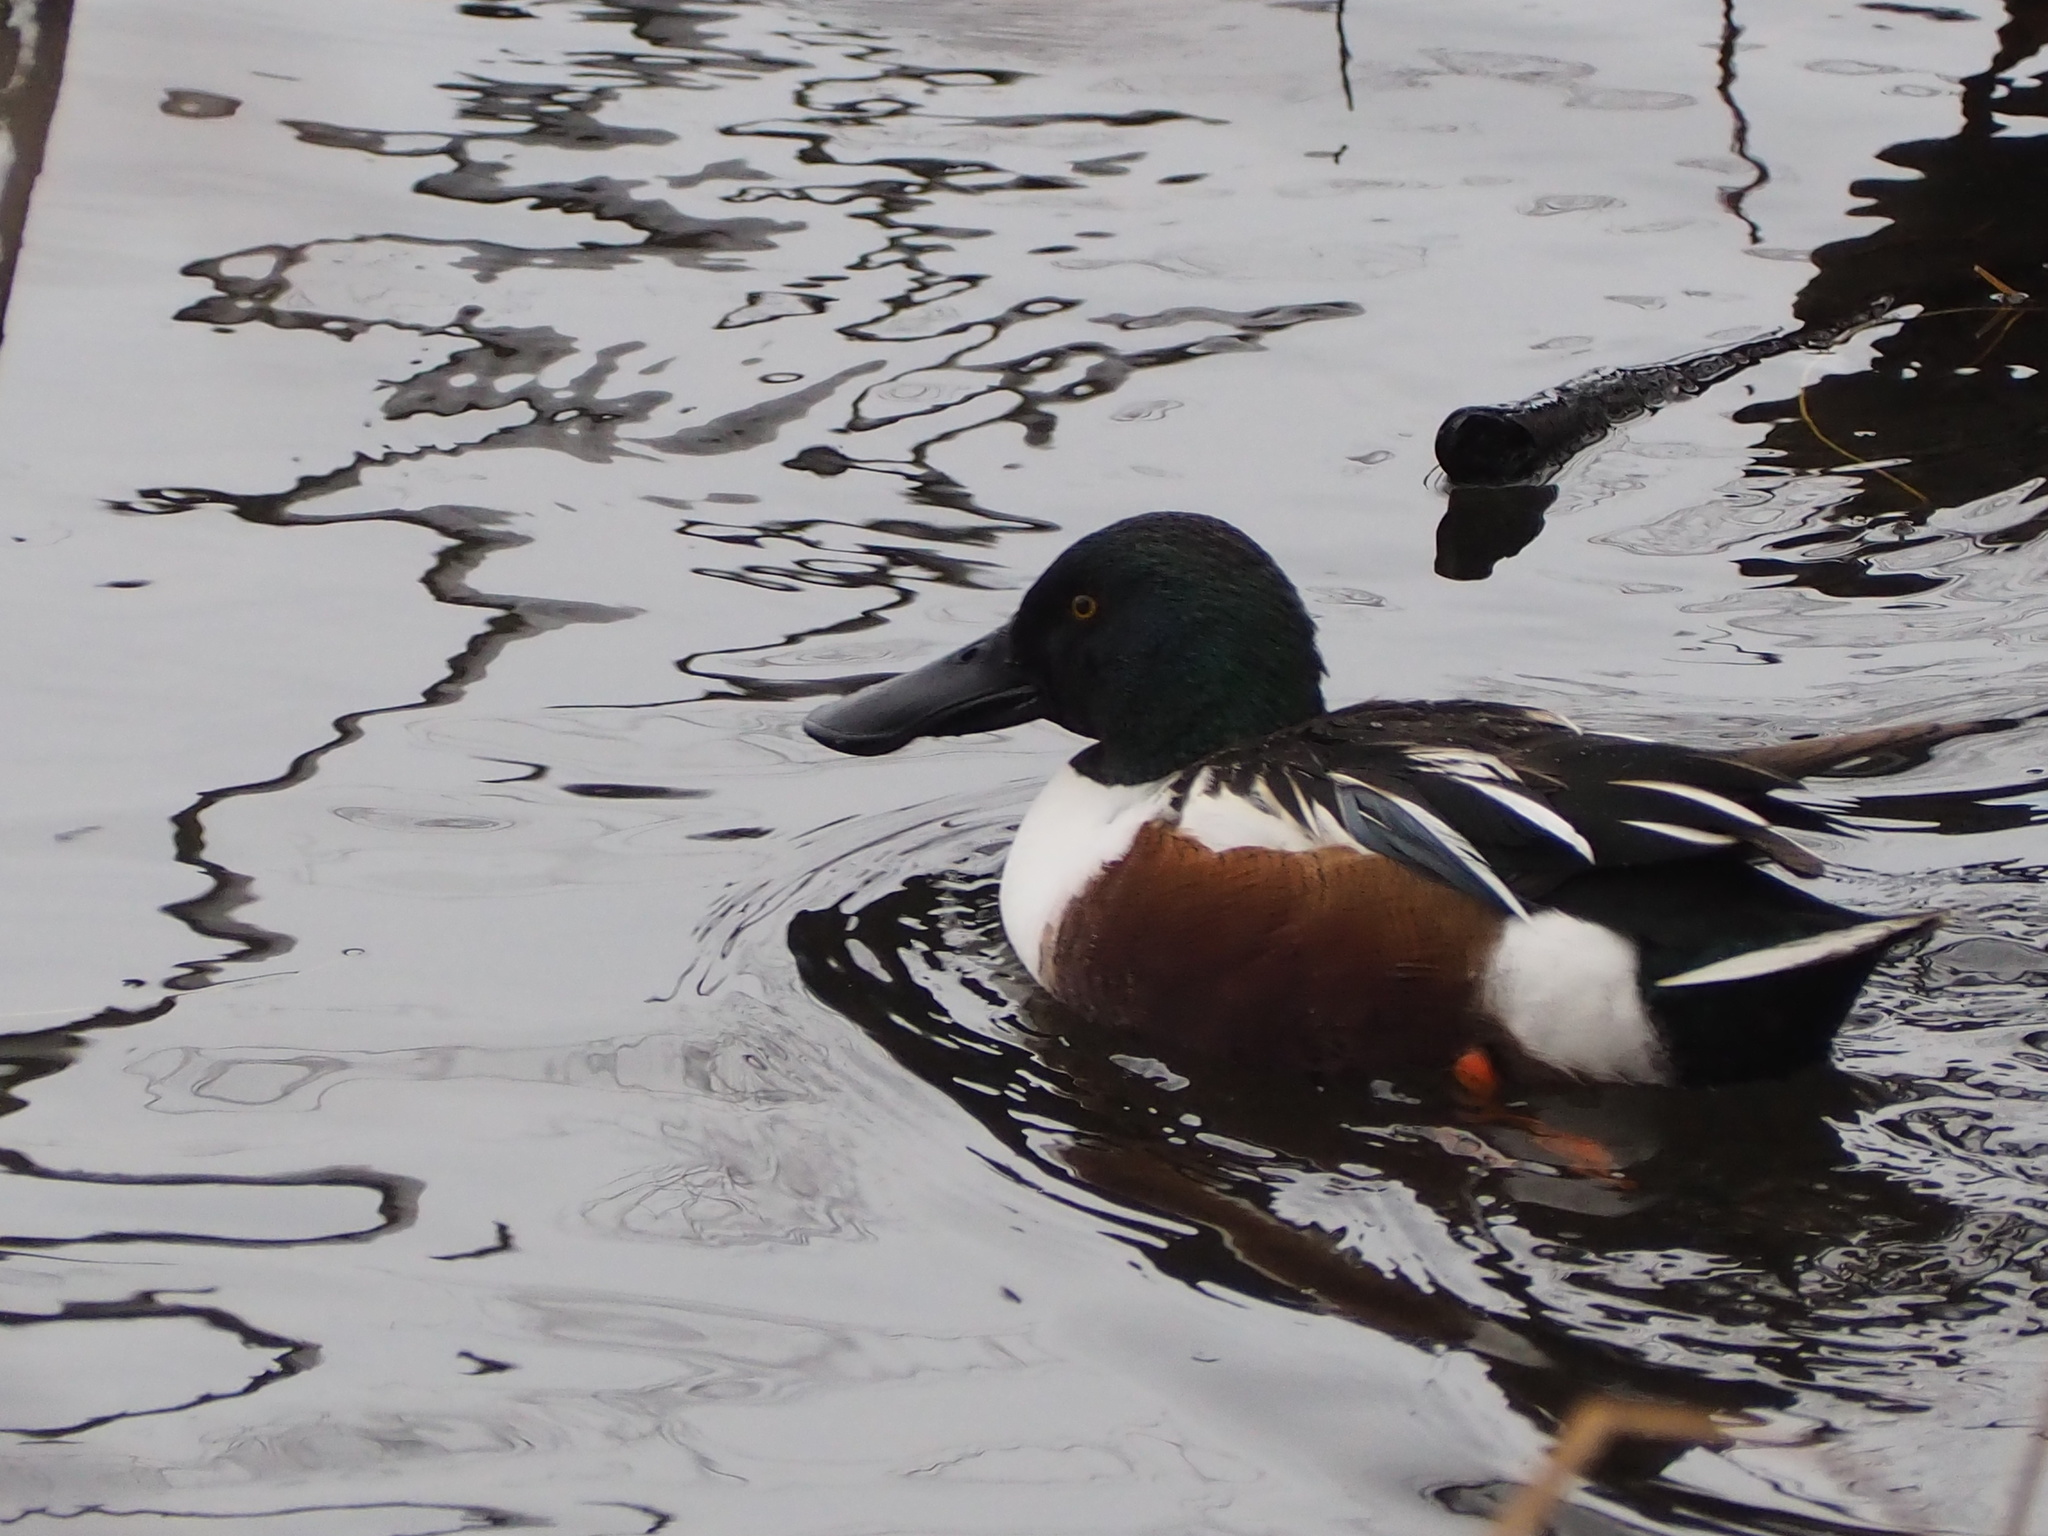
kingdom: Animalia
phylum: Chordata
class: Aves
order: Anseriformes
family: Anatidae
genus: Spatula
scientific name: Spatula clypeata
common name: Northern shoveler
